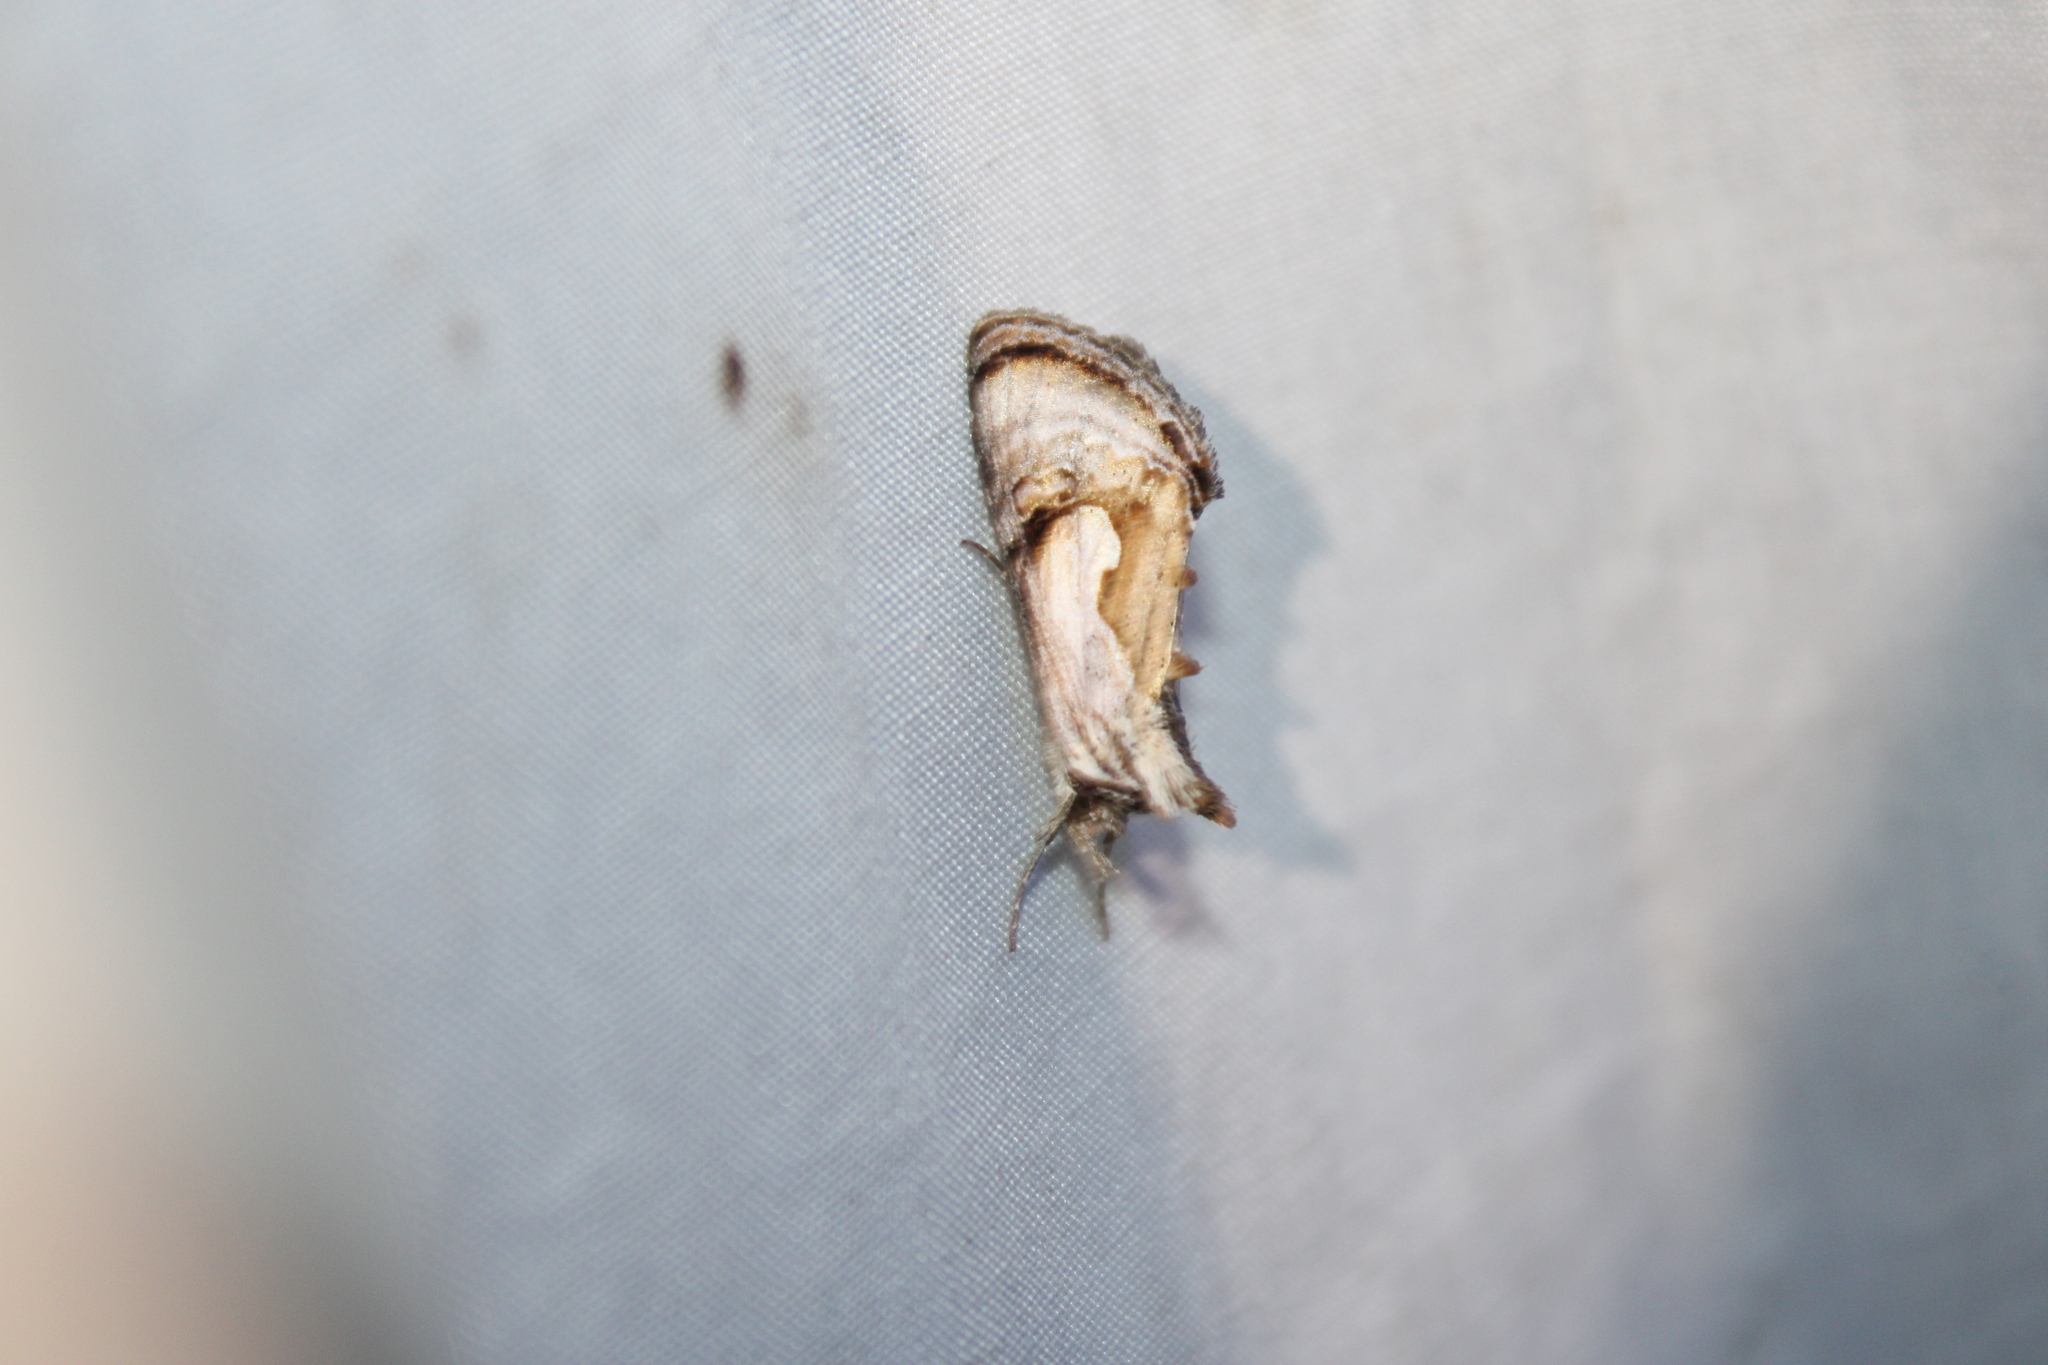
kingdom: Animalia
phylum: Arthropoda
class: Insecta
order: Lepidoptera
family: Noctuidae
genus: Chrysanympha
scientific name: Chrysanympha formosa
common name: Formosa looper moth
